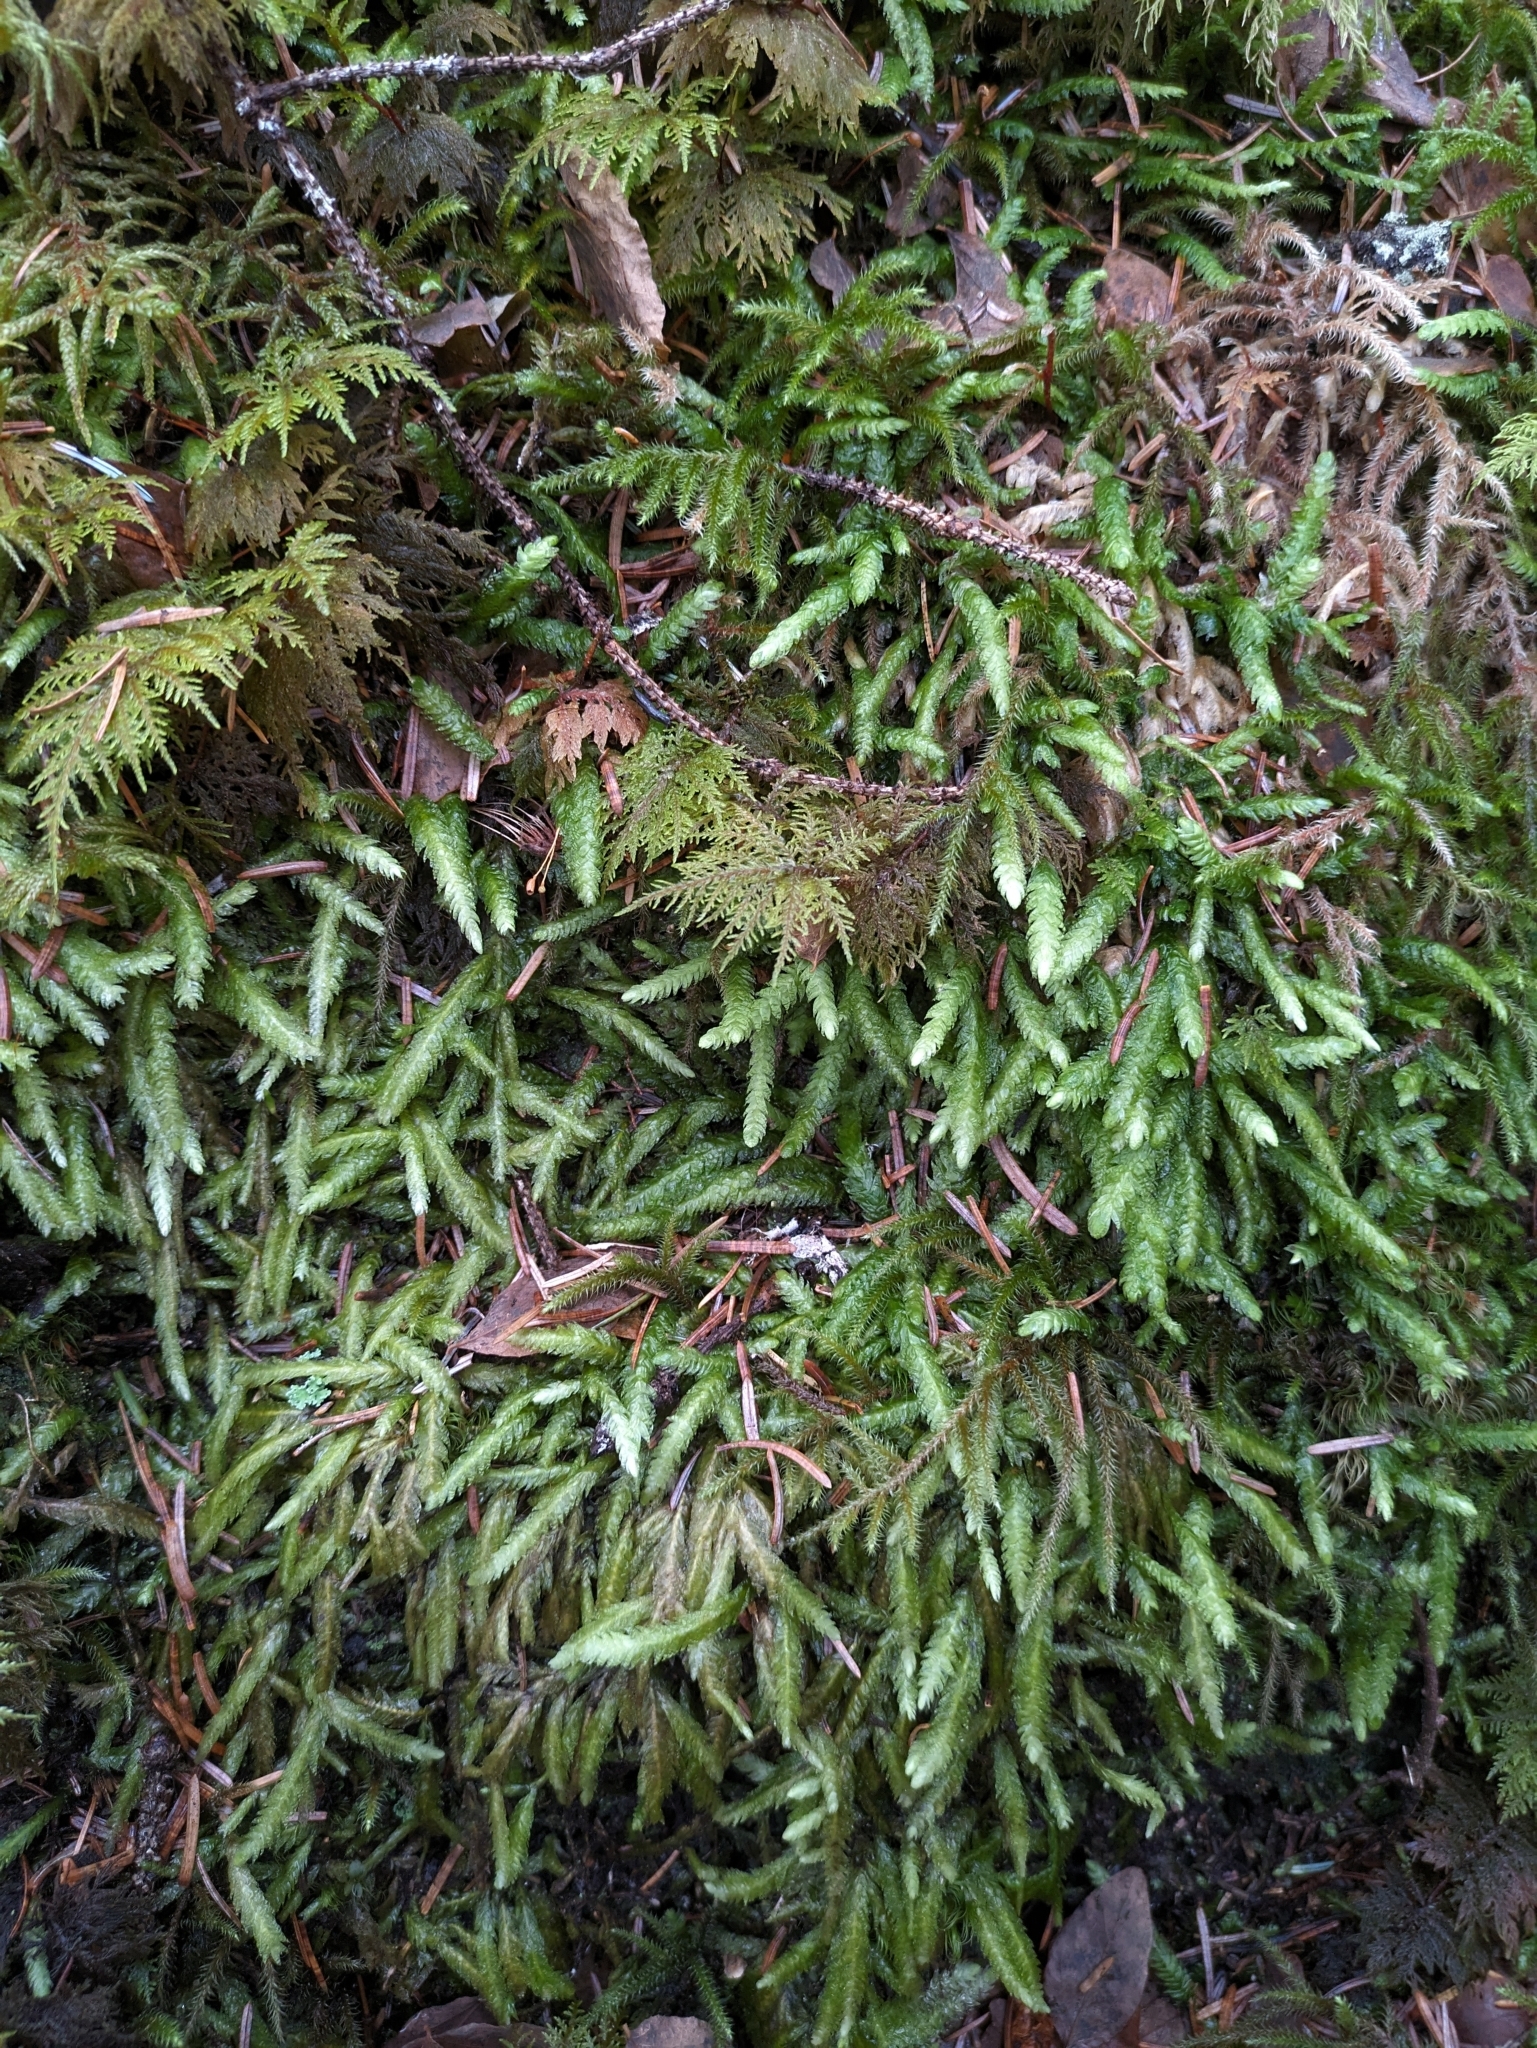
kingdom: Plantae
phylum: Bryophyta
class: Bryopsida
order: Hypnales
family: Plagiotheciaceae
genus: Plagiothecium
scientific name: Plagiothecium undulatum
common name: Waved silk-moss
